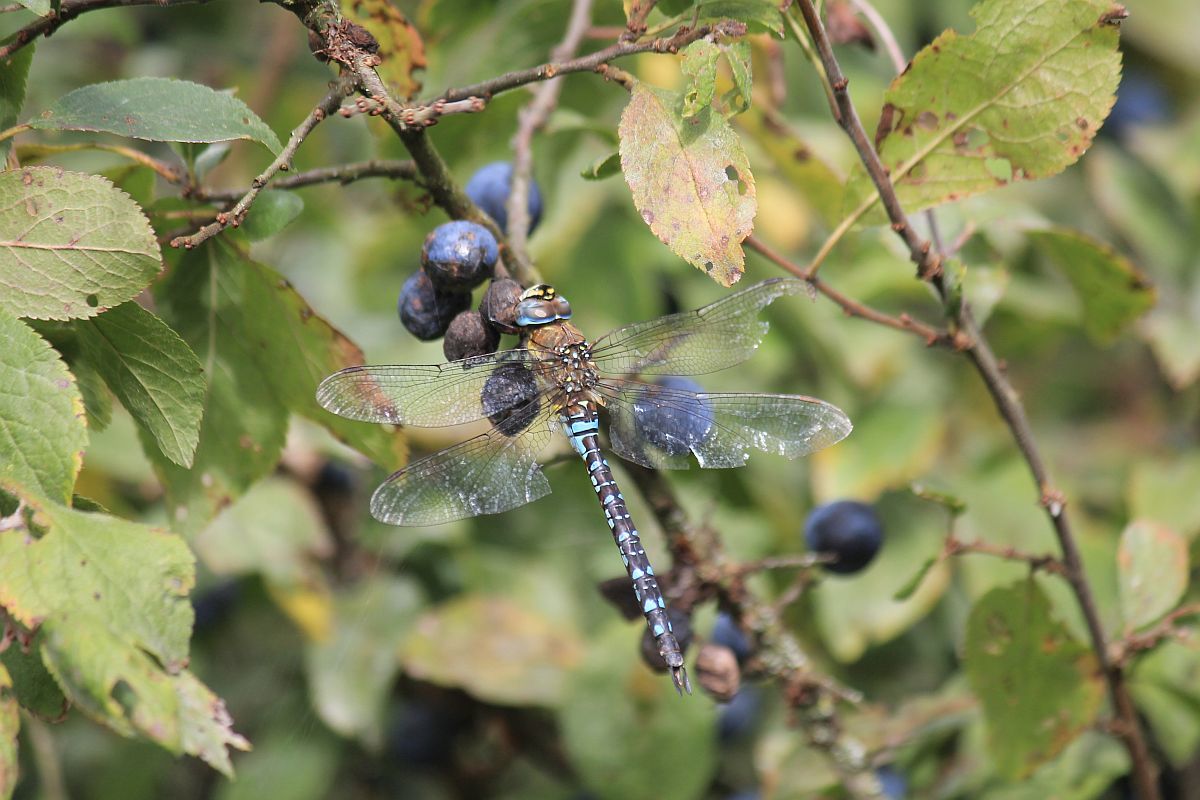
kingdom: Animalia
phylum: Arthropoda
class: Insecta
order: Odonata
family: Aeshnidae
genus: Aeshna
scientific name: Aeshna mixta
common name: Migrant hawker
